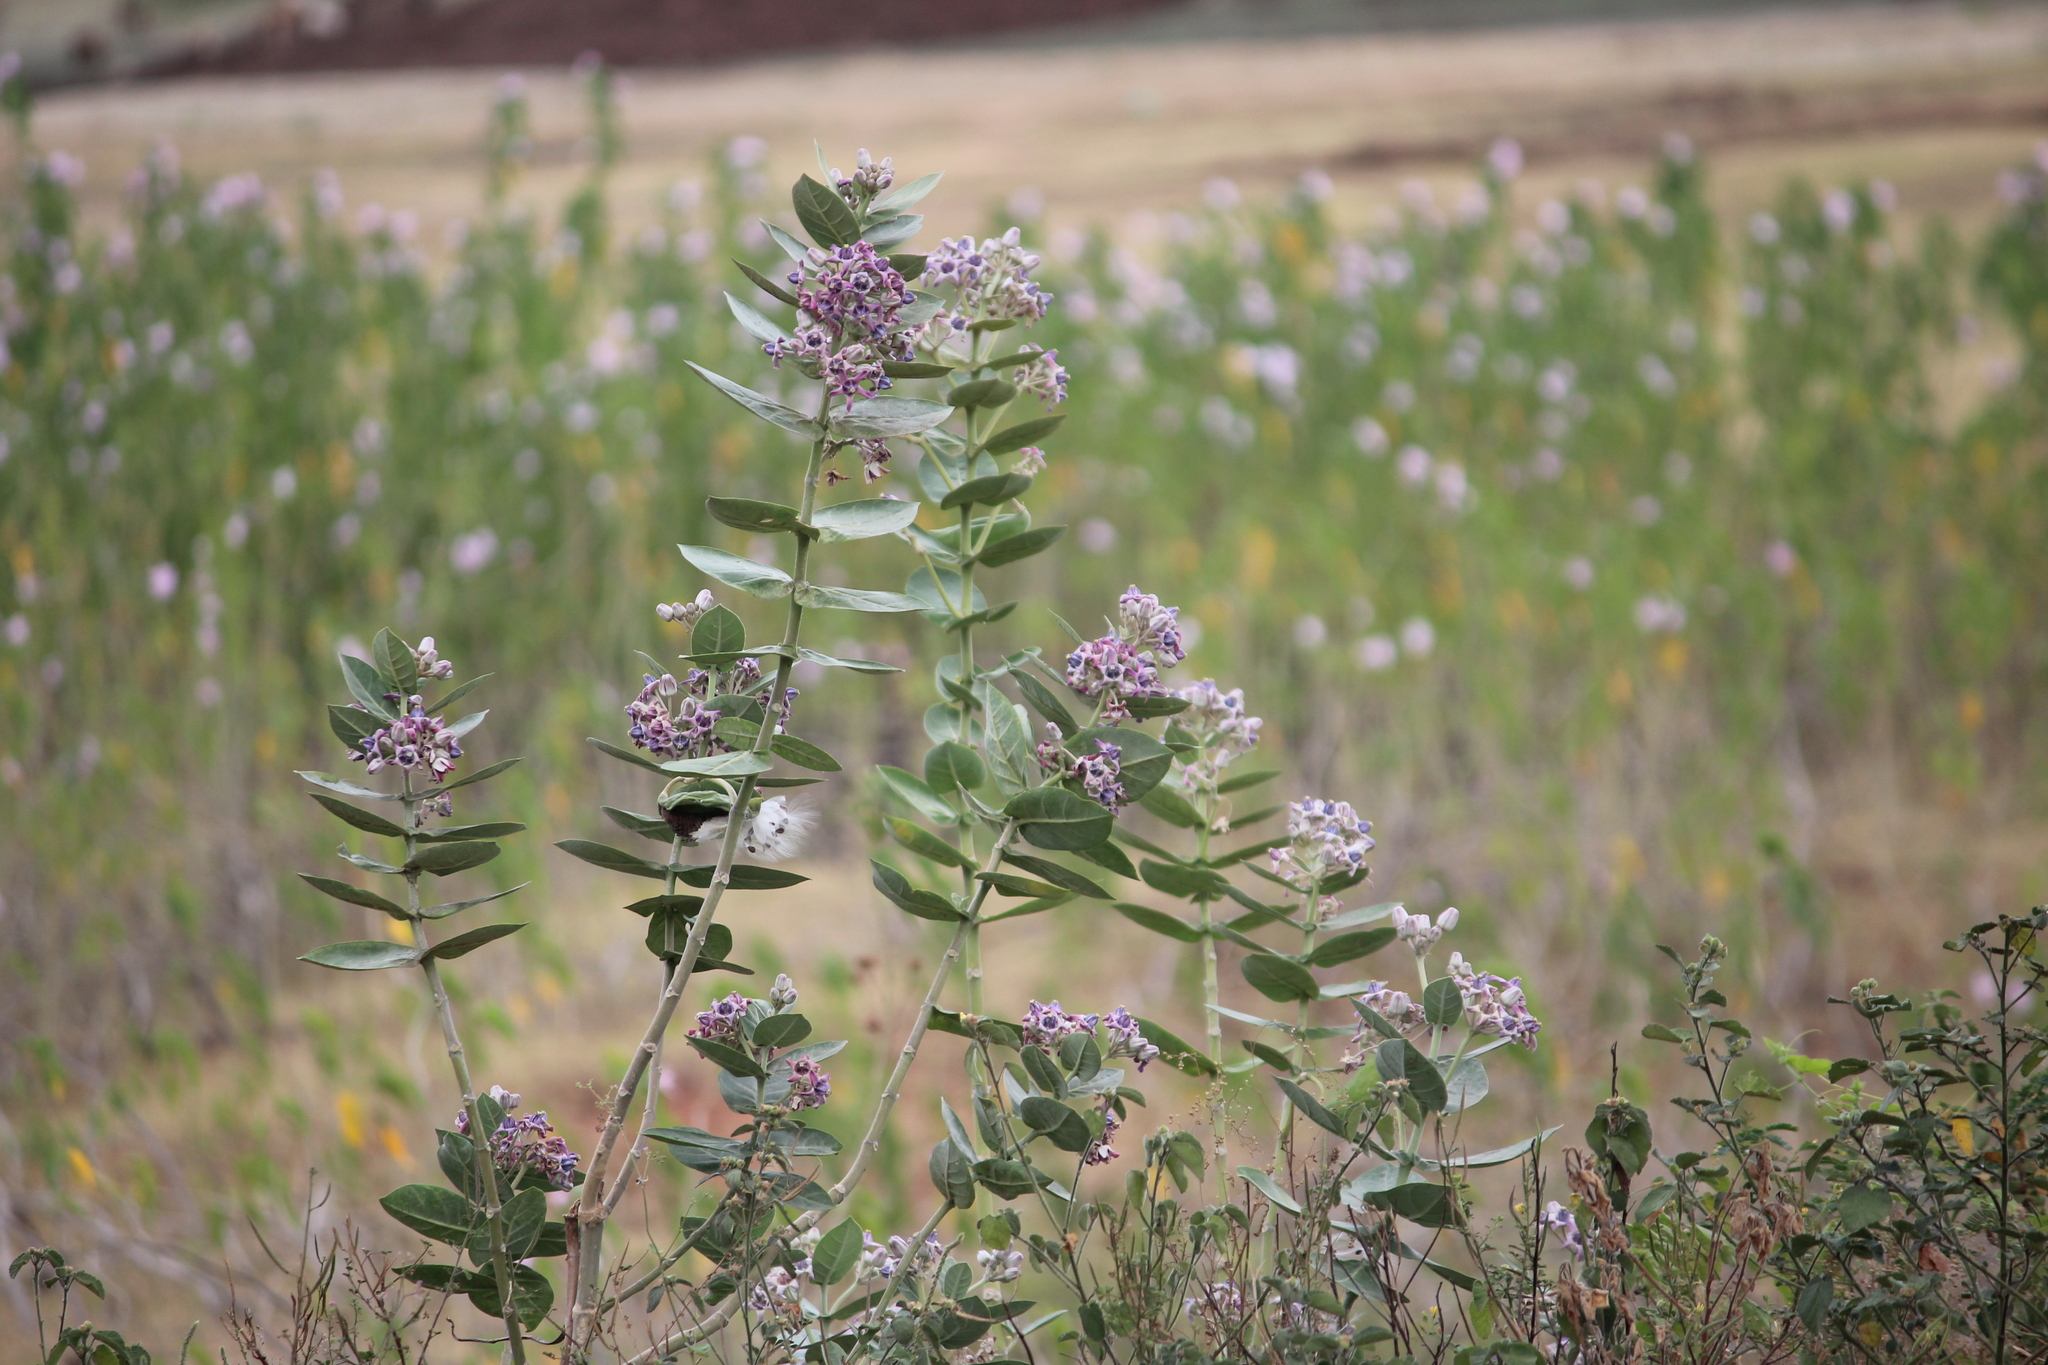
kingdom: Plantae
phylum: Tracheophyta
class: Magnoliopsida
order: Gentianales
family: Apocynaceae
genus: Calotropis
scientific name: Calotropis gigantea
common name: Crown flower
